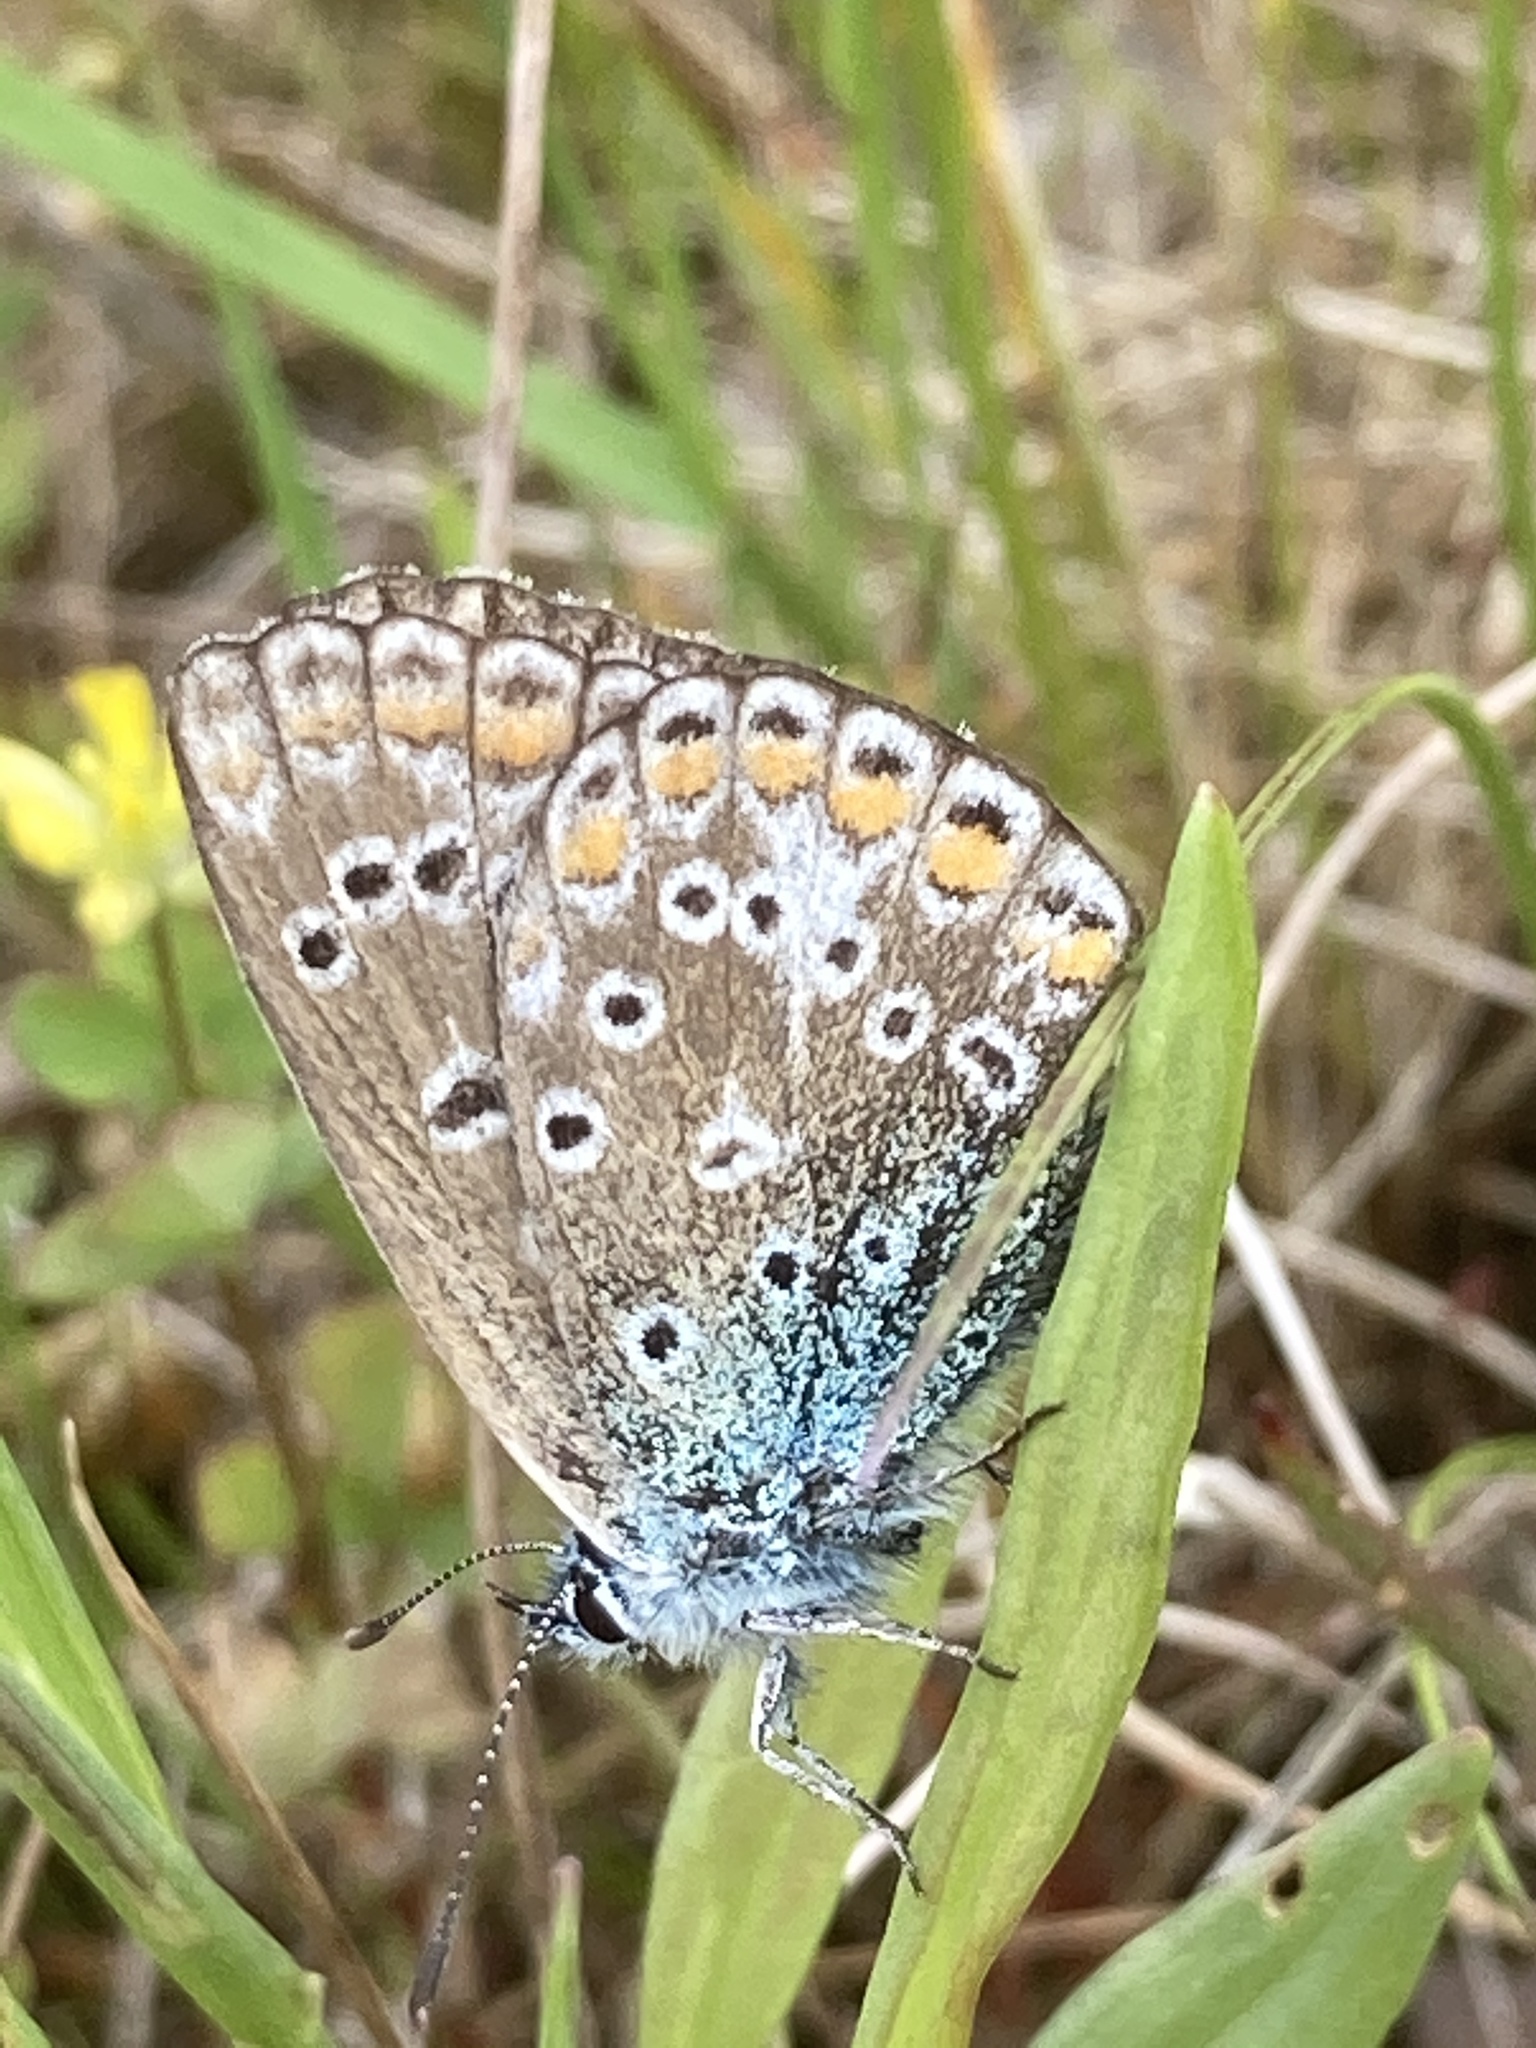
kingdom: Animalia
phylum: Arthropoda
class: Insecta
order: Lepidoptera
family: Lycaenidae
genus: Polyommatus
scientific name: Polyommatus icarus
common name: Common blue
